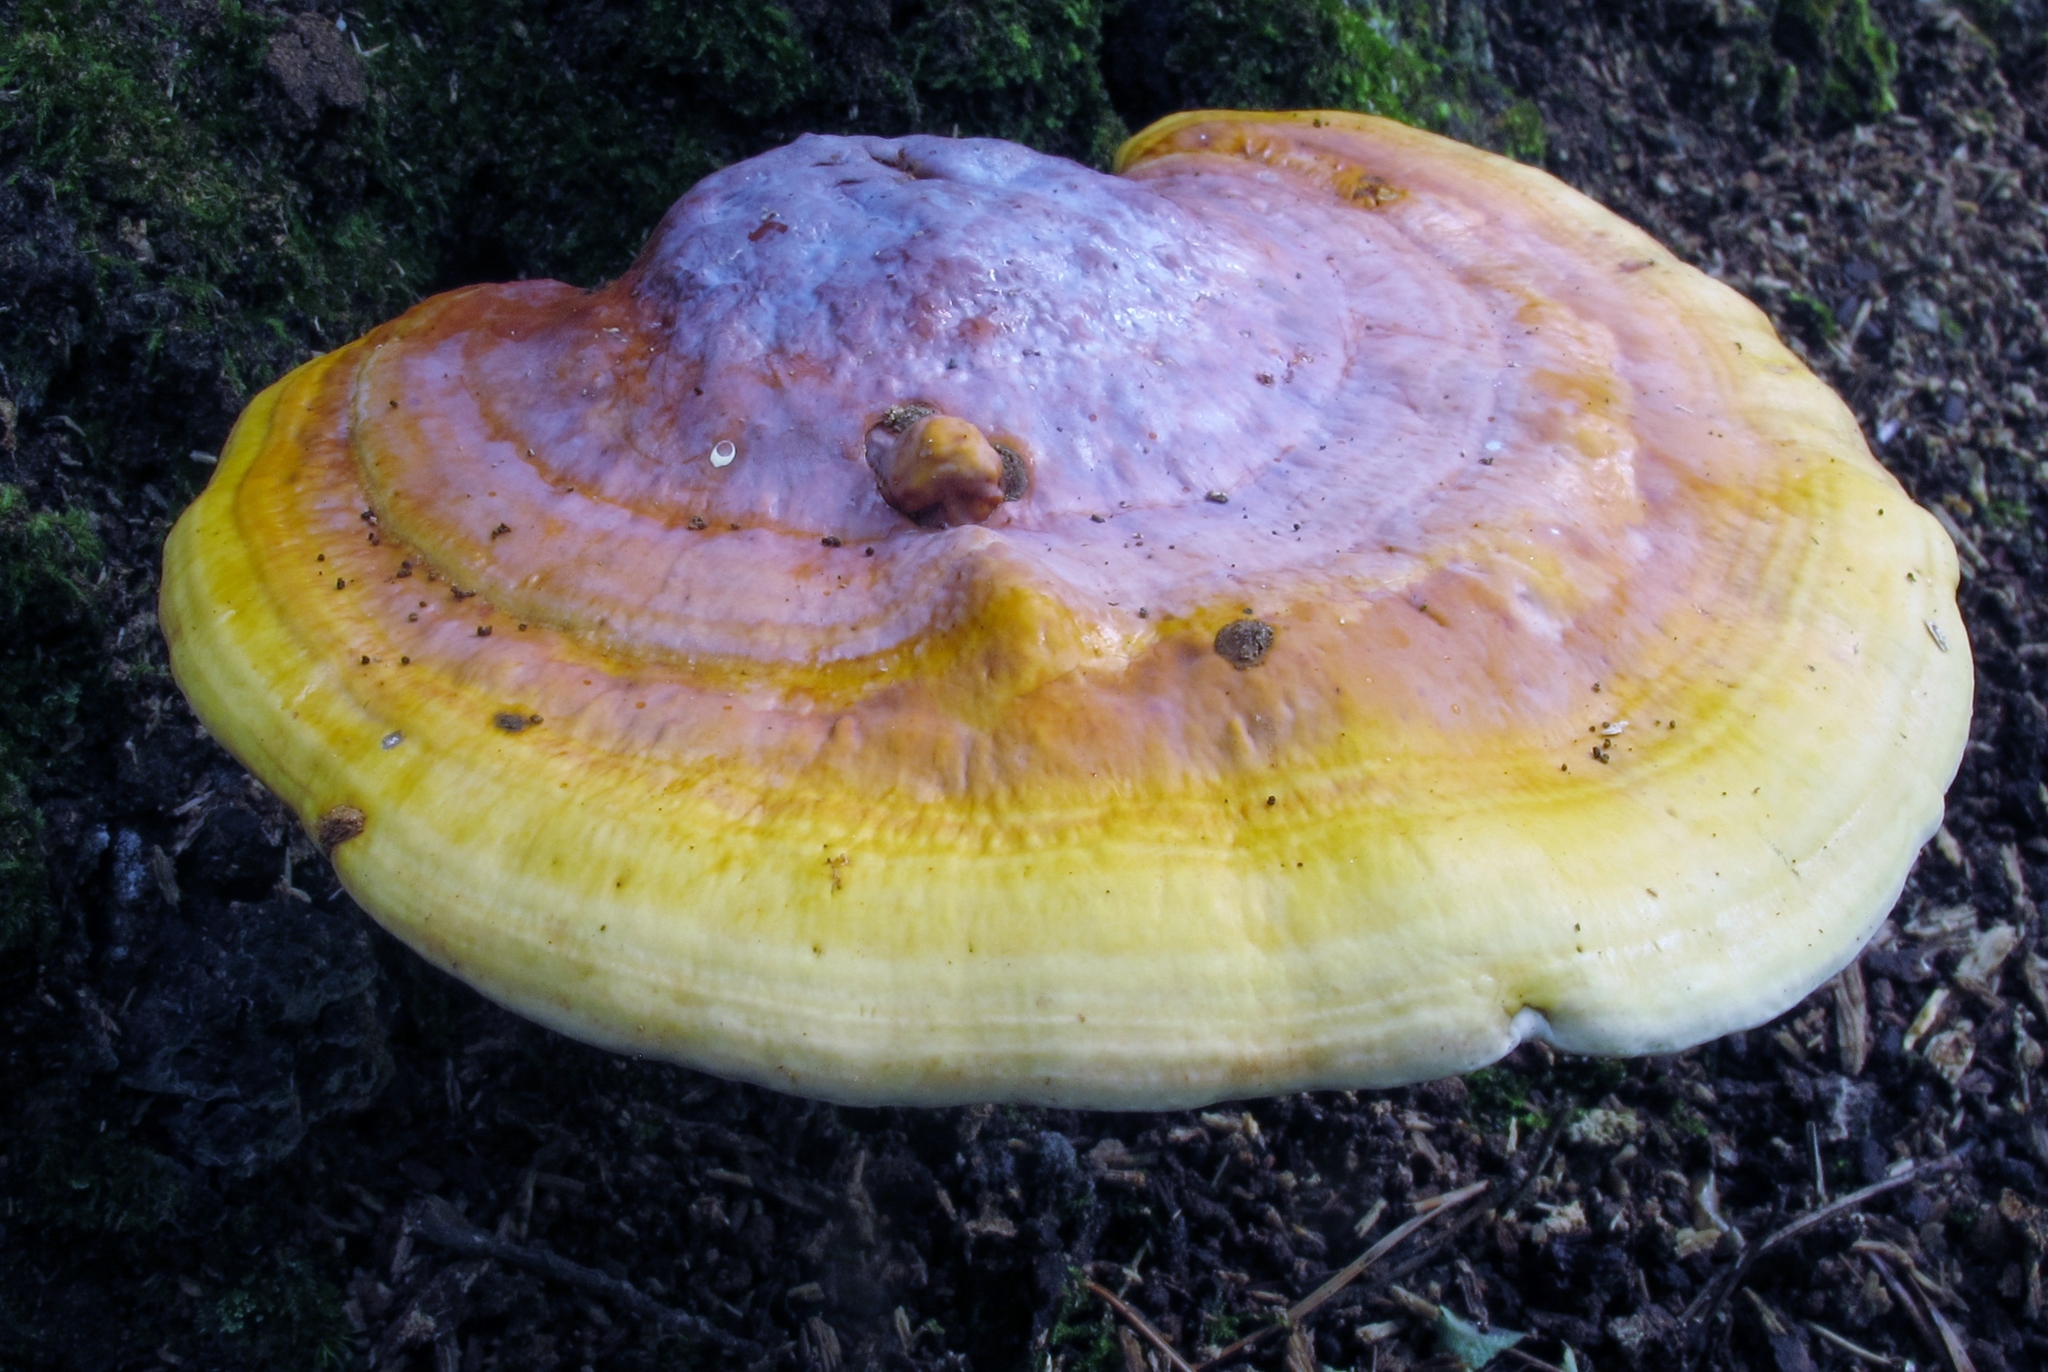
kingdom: Fungi
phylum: Basidiomycota
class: Agaricomycetes
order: Polyporales
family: Polyporaceae
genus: Ganoderma
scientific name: Ganoderma curtisii
